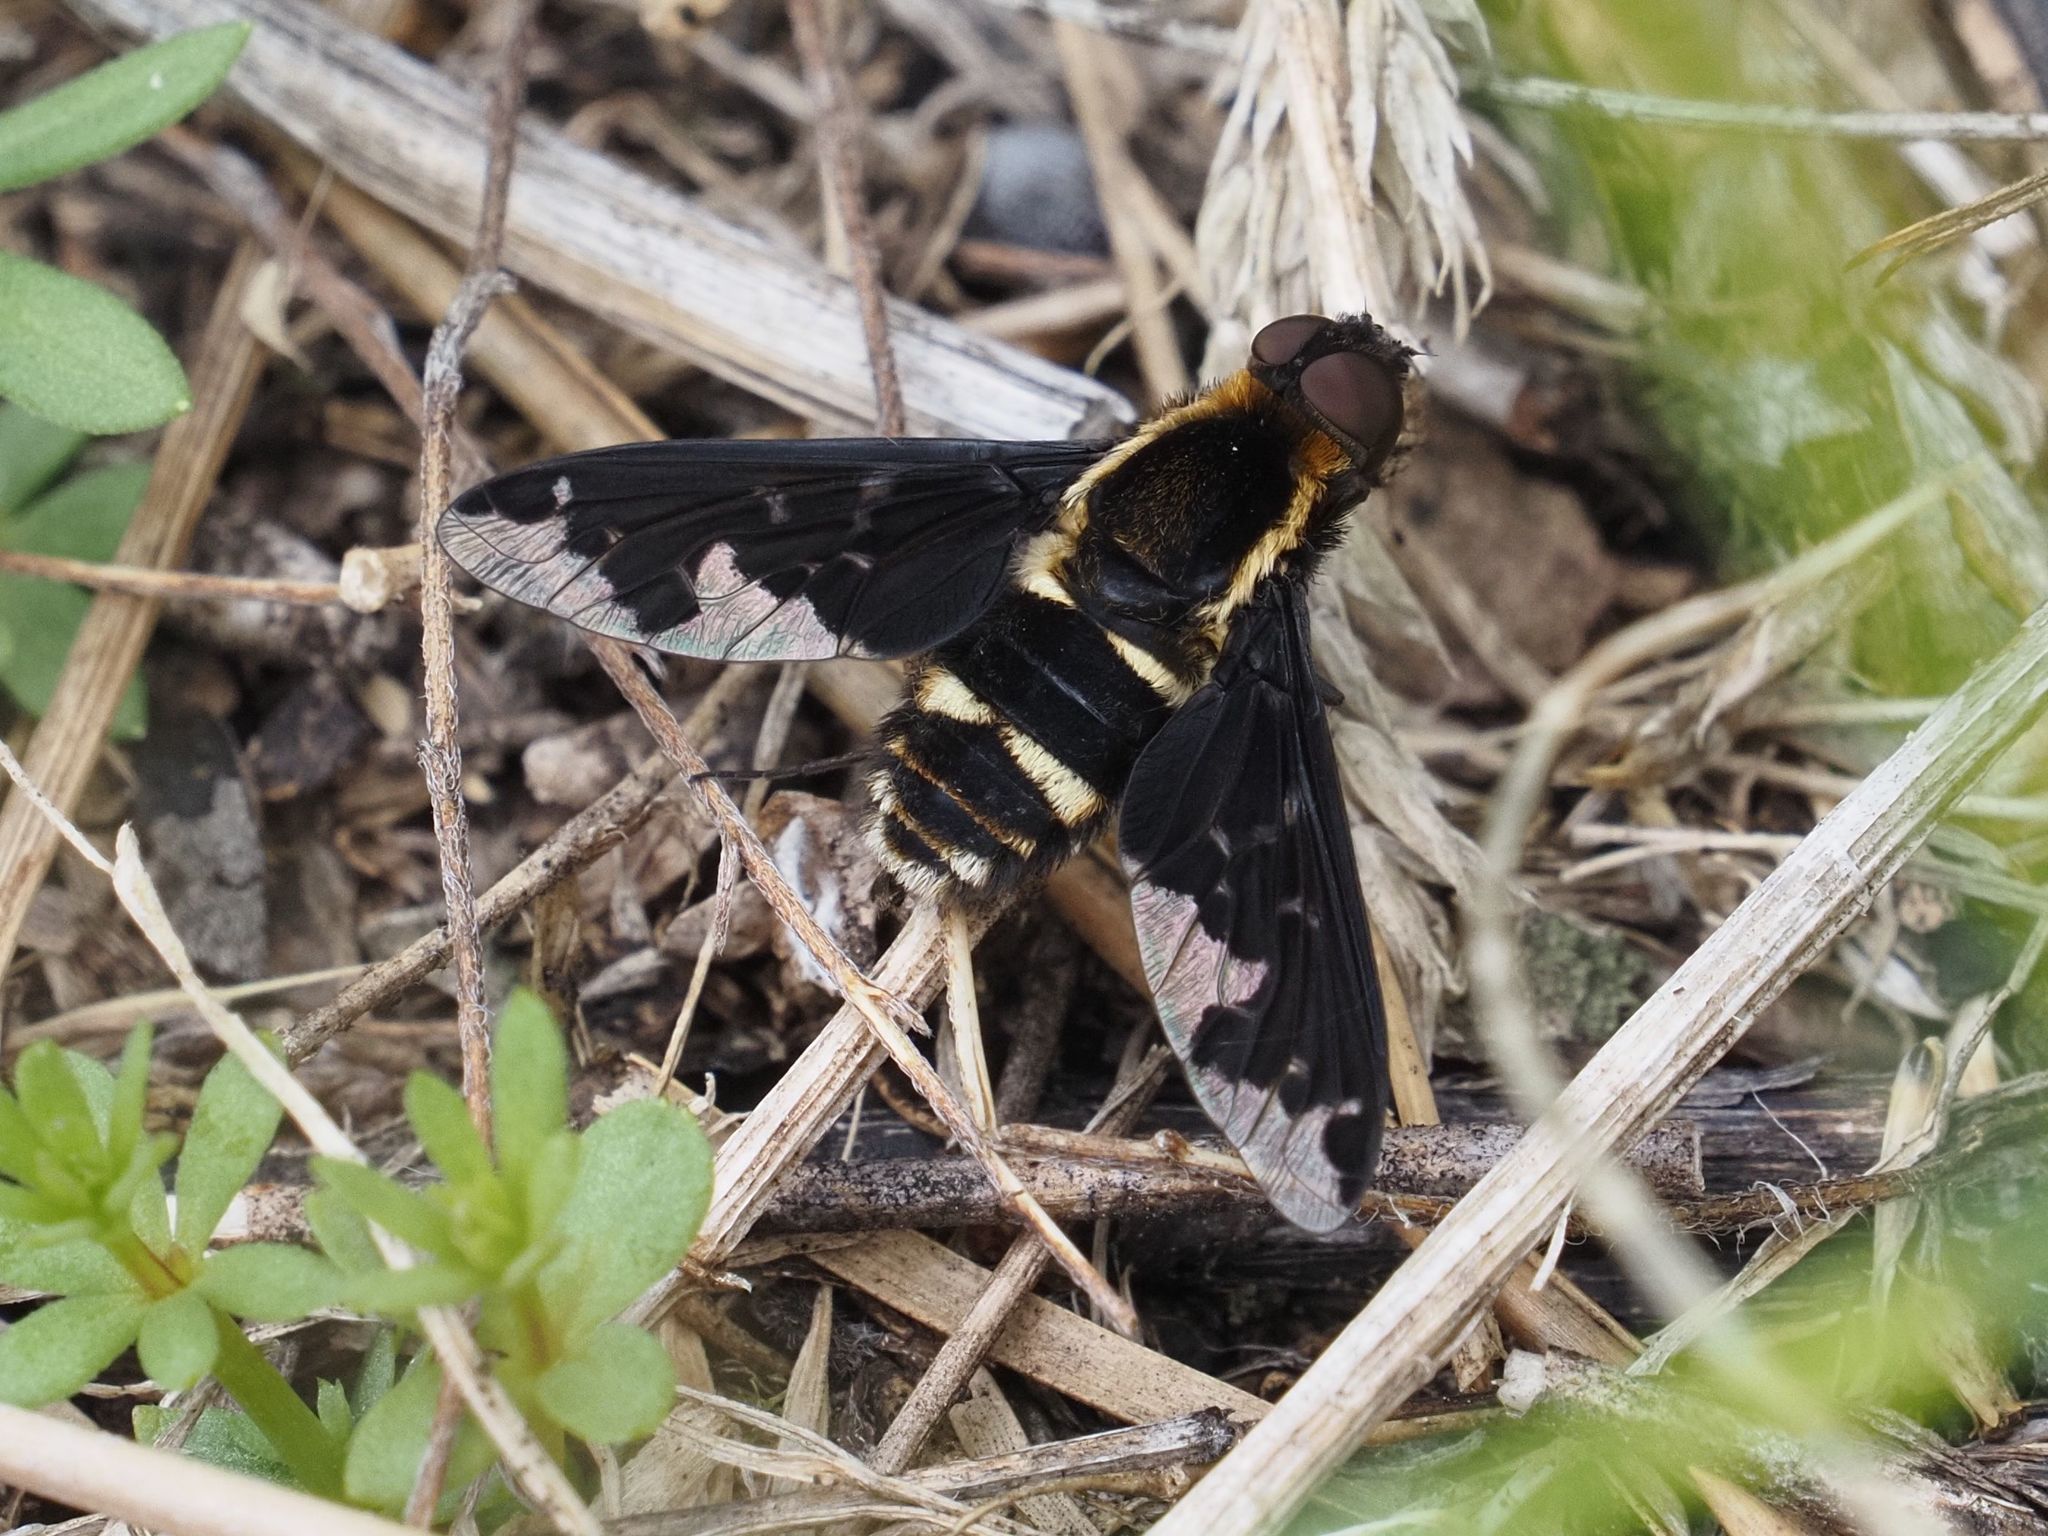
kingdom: Animalia
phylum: Arthropoda
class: Insecta
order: Diptera
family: Bombyliidae
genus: Hemipenthes
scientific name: Hemipenthes maura
